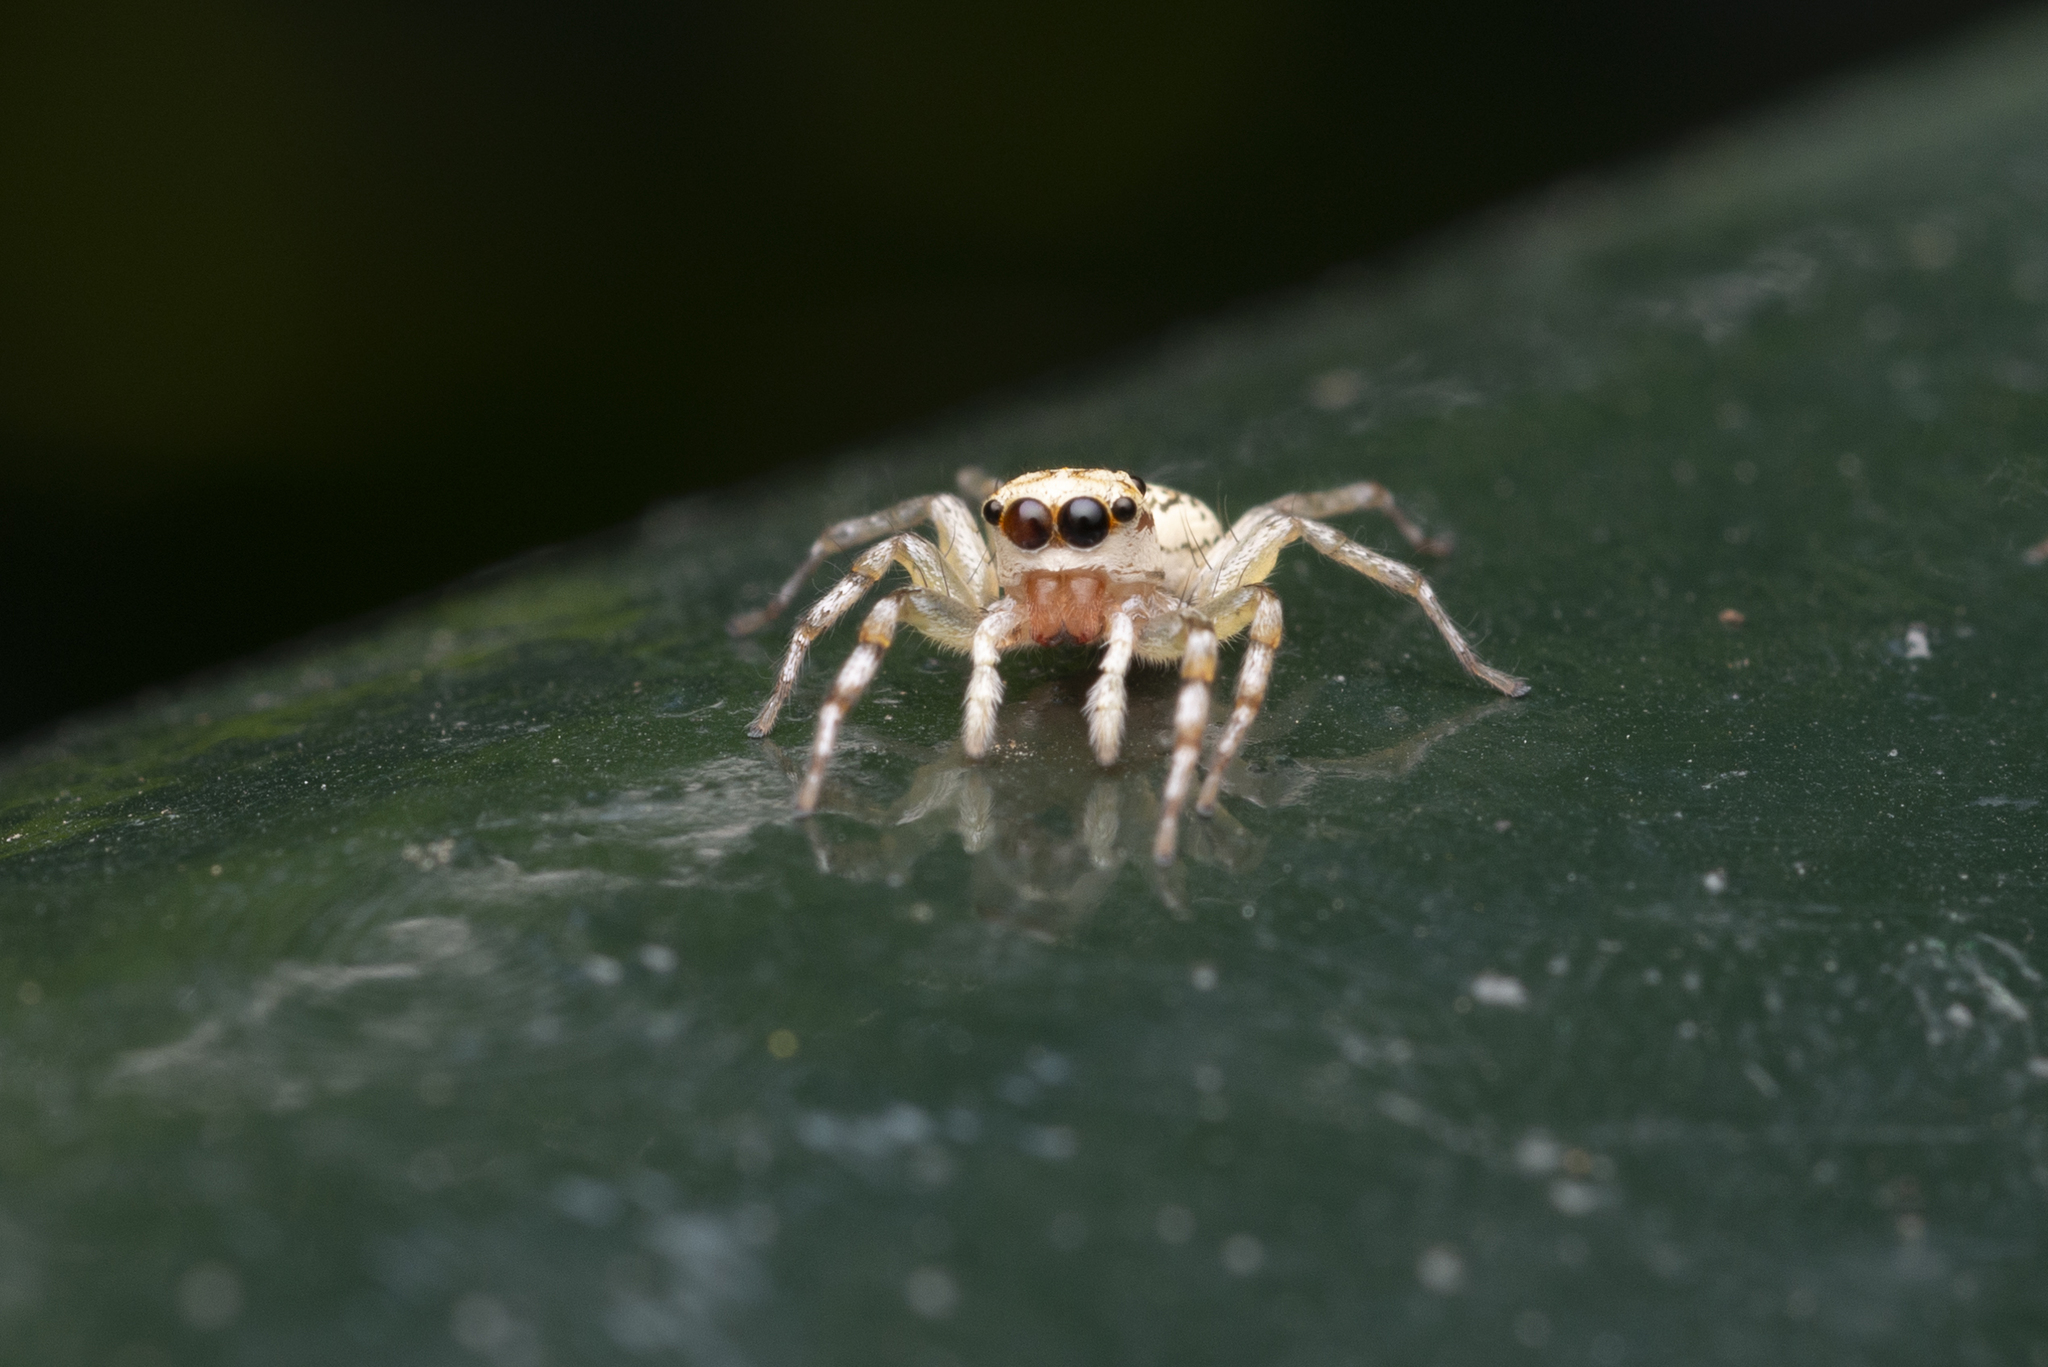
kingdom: Animalia
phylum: Arthropoda
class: Arachnida
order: Araneae
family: Salticidae
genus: Phintelloides
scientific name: Phintelloides versicolor
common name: Jumping spider
